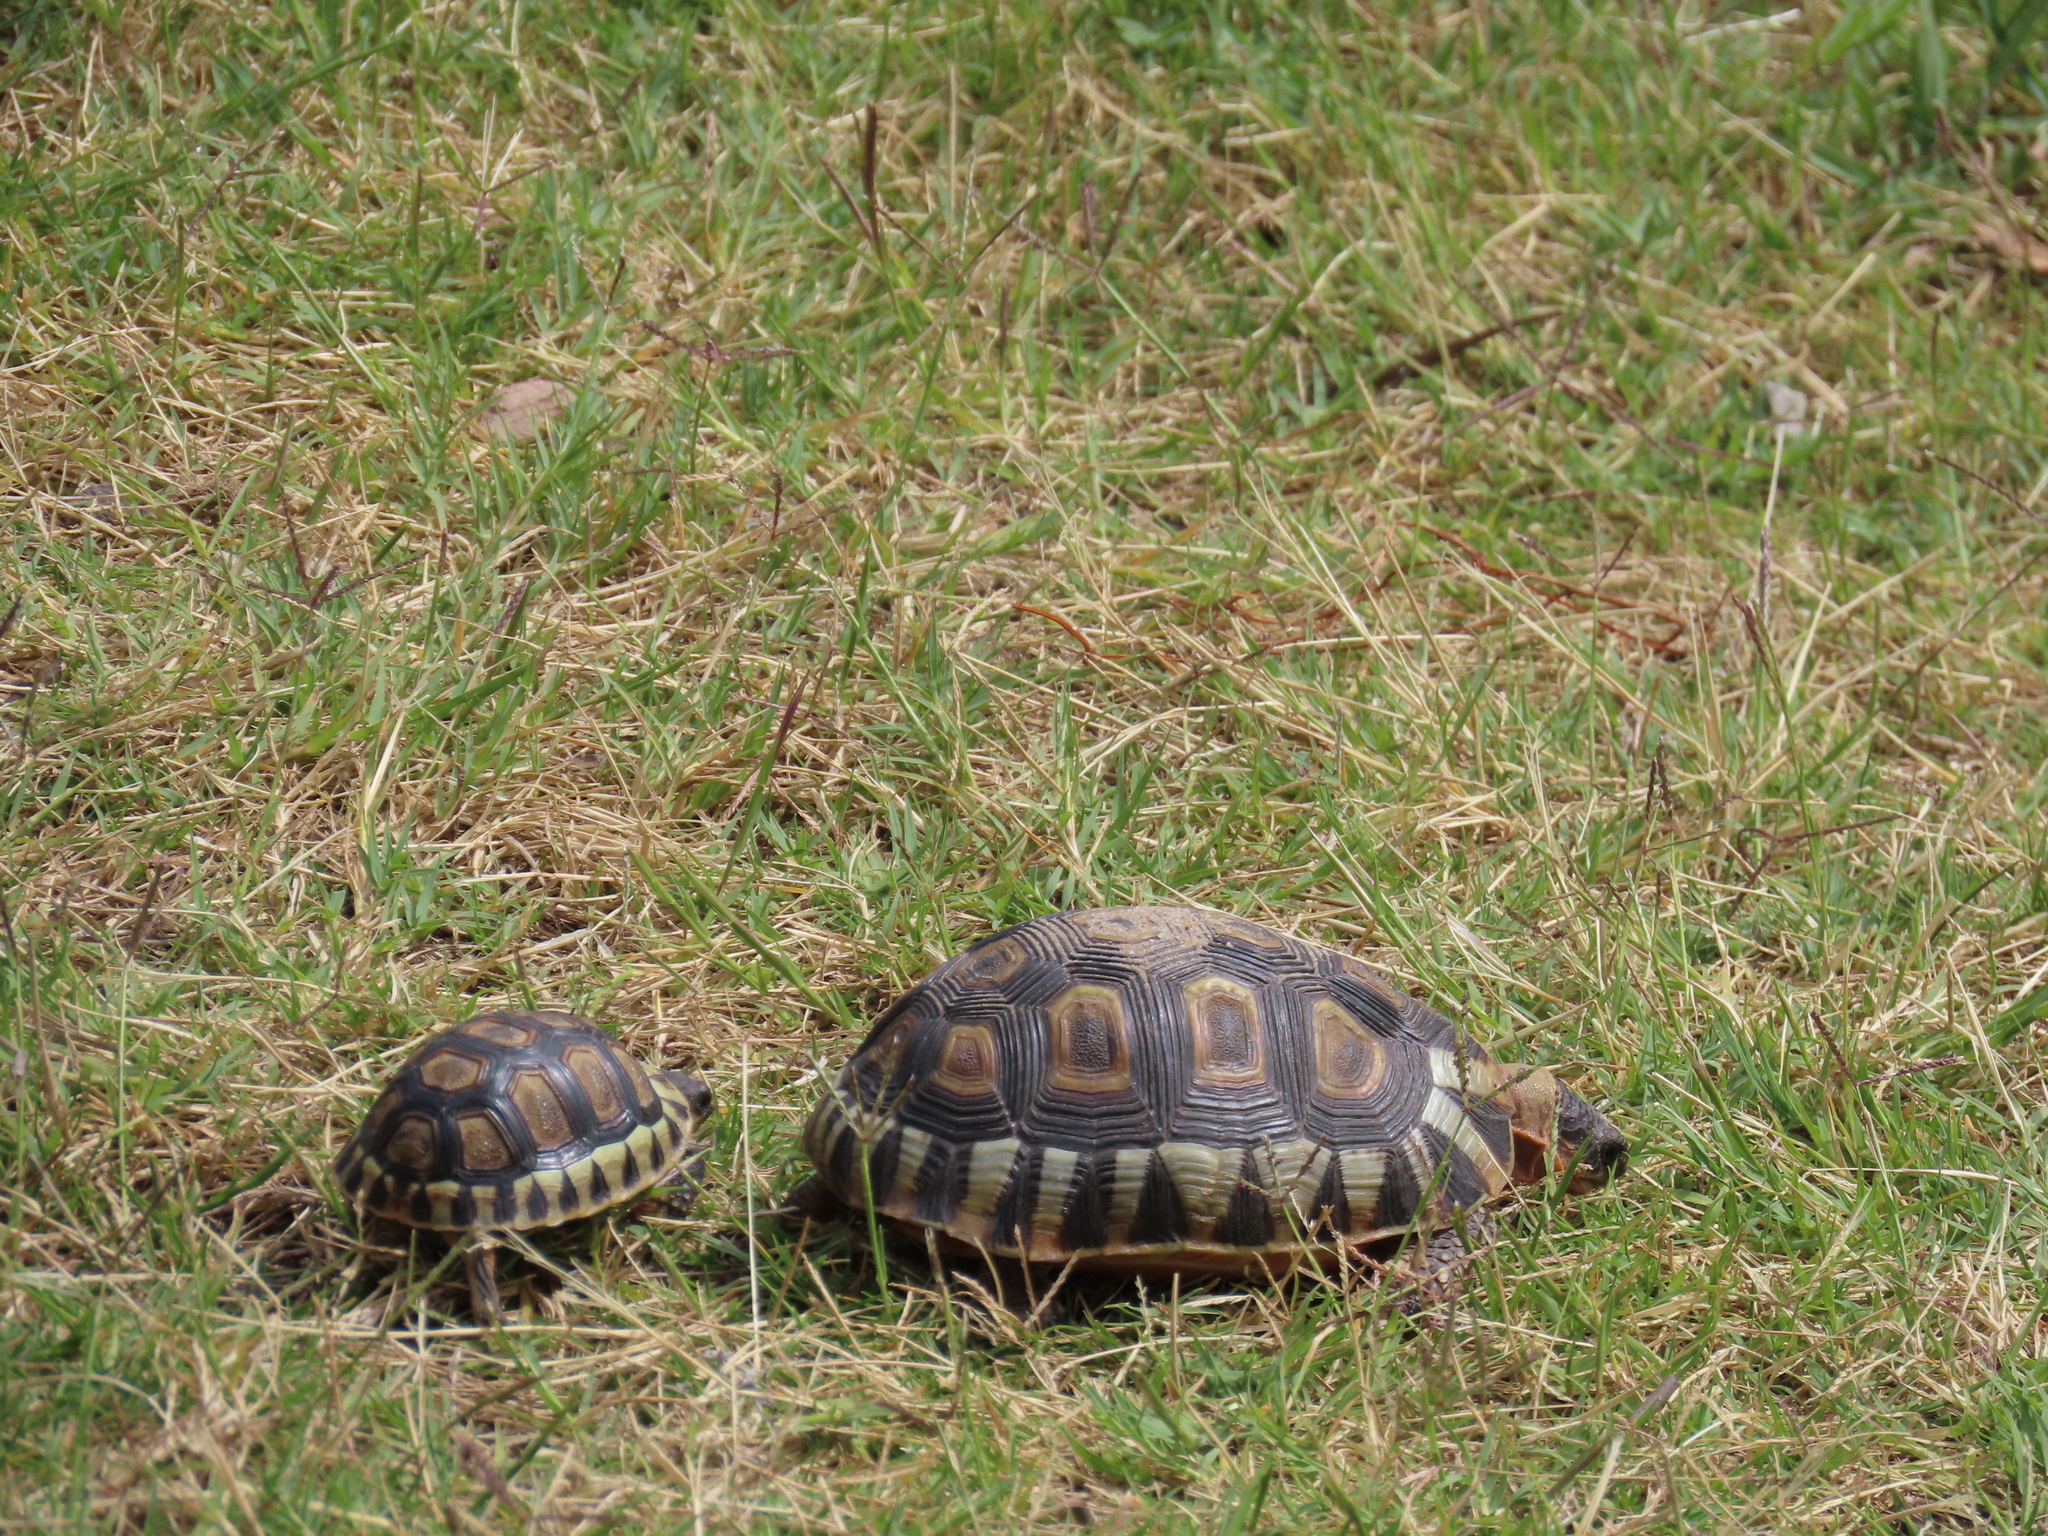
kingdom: Animalia
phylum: Chordata
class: Testudines
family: Testudinidae
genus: Chersina
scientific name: Chersina angulata
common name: South african bowsprit tortoise
